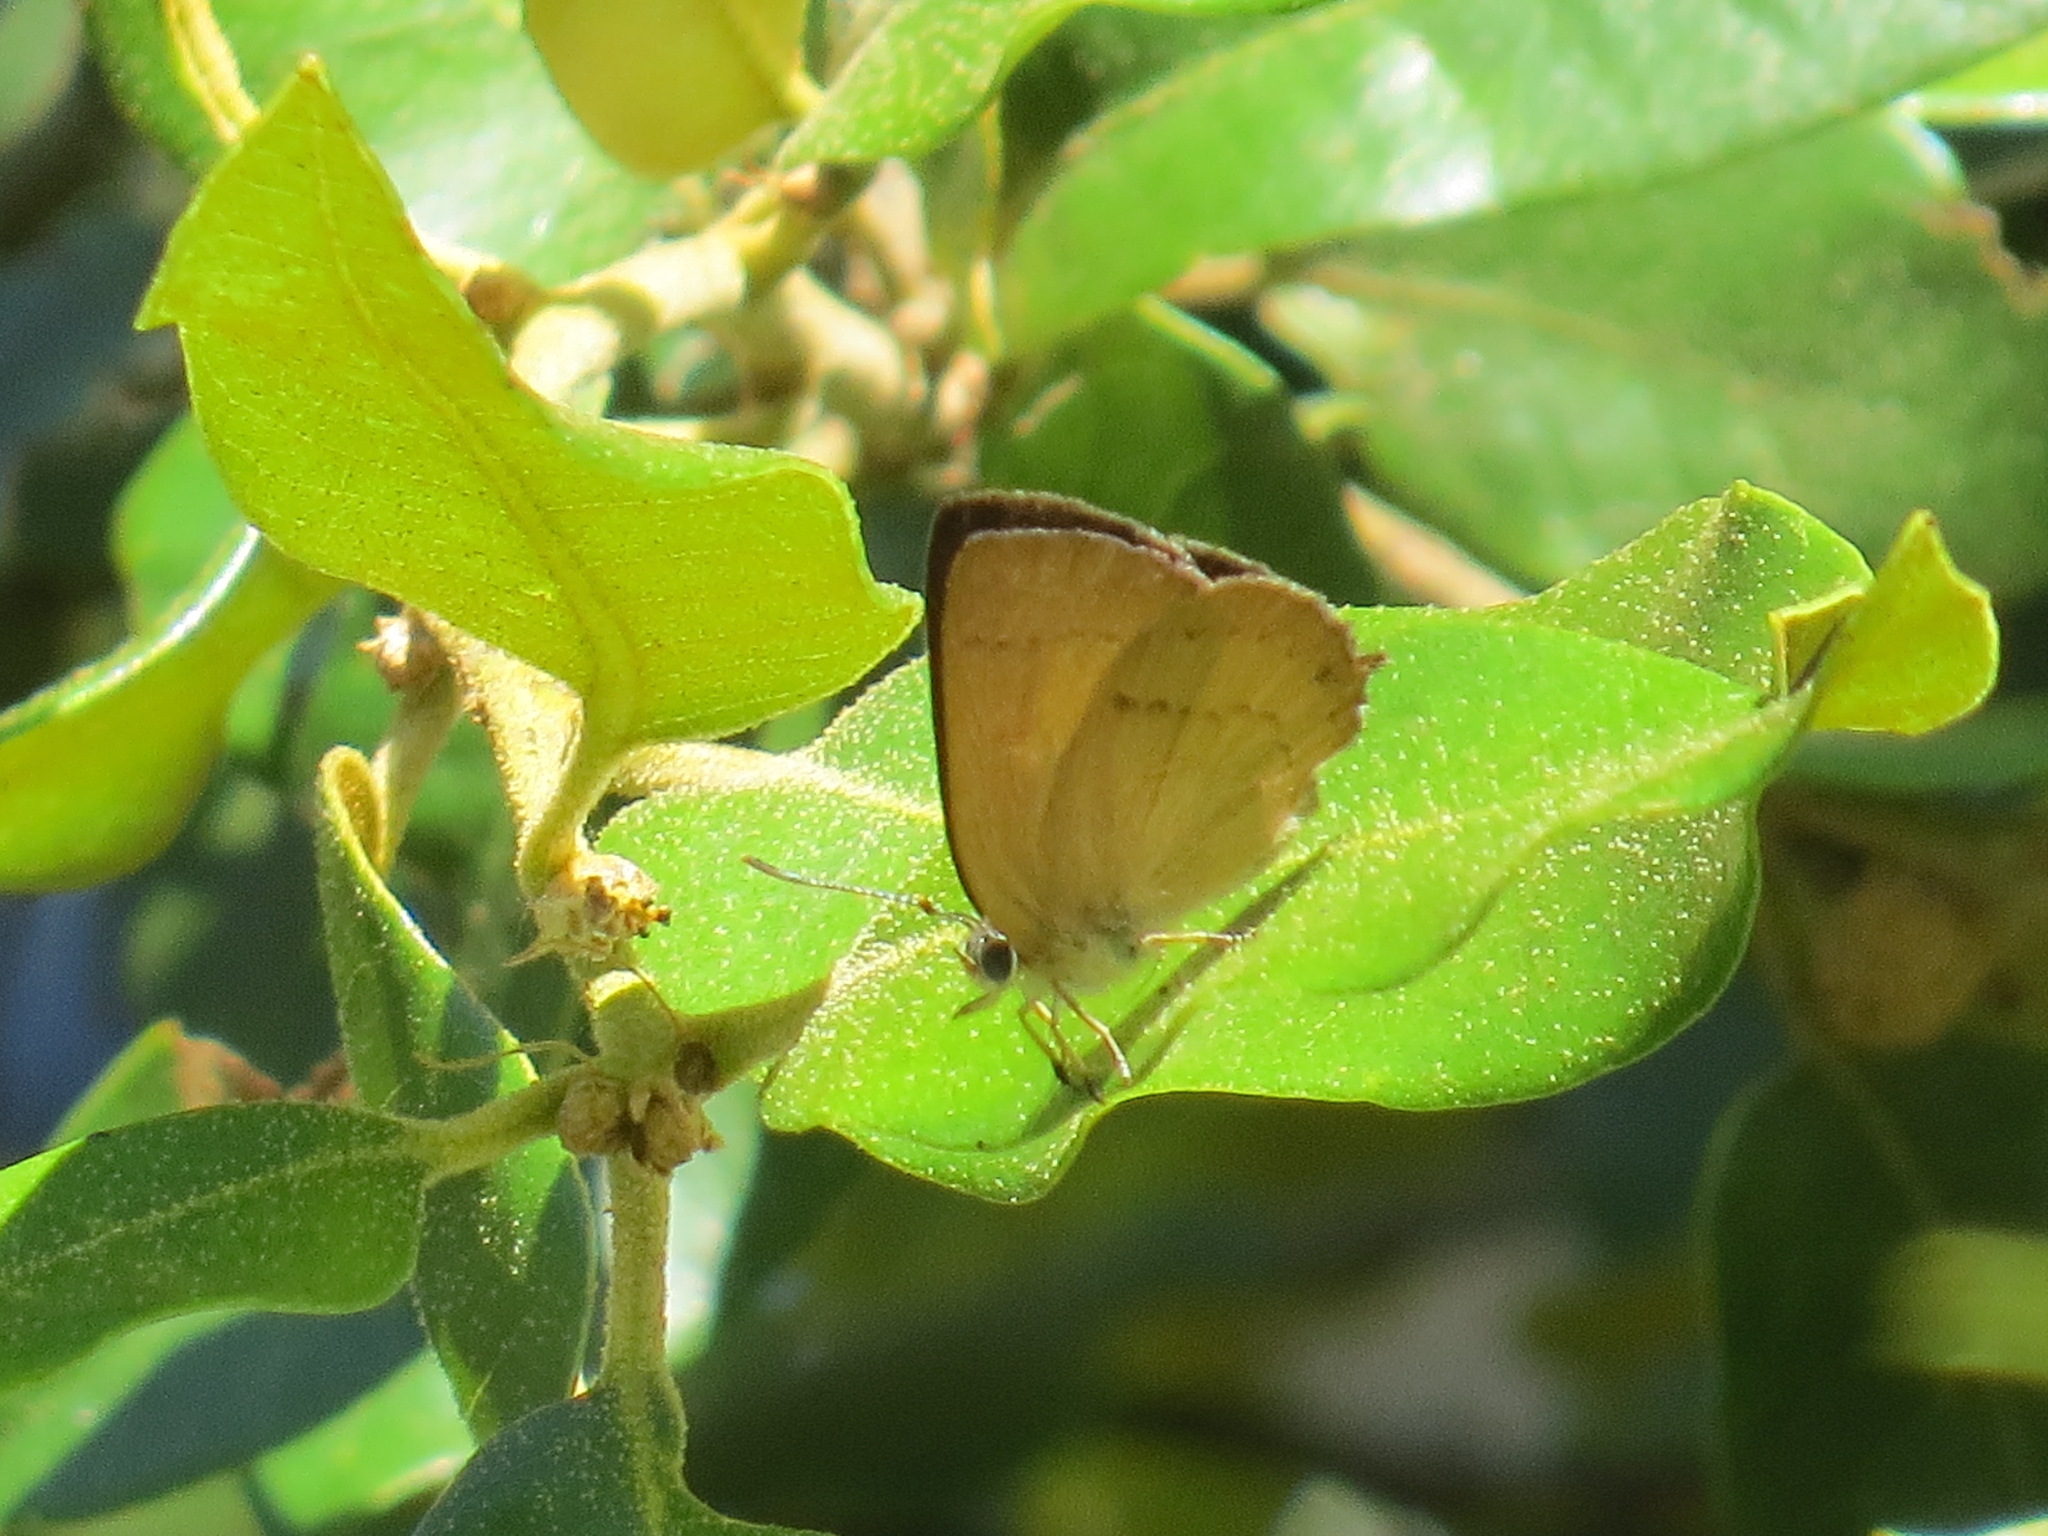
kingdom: Animalia
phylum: Arthropoda
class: Insecta
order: Lepidoptera
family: Lycaenidae
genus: Habrodais
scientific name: Habrodais grunus
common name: Golden hairstreak
